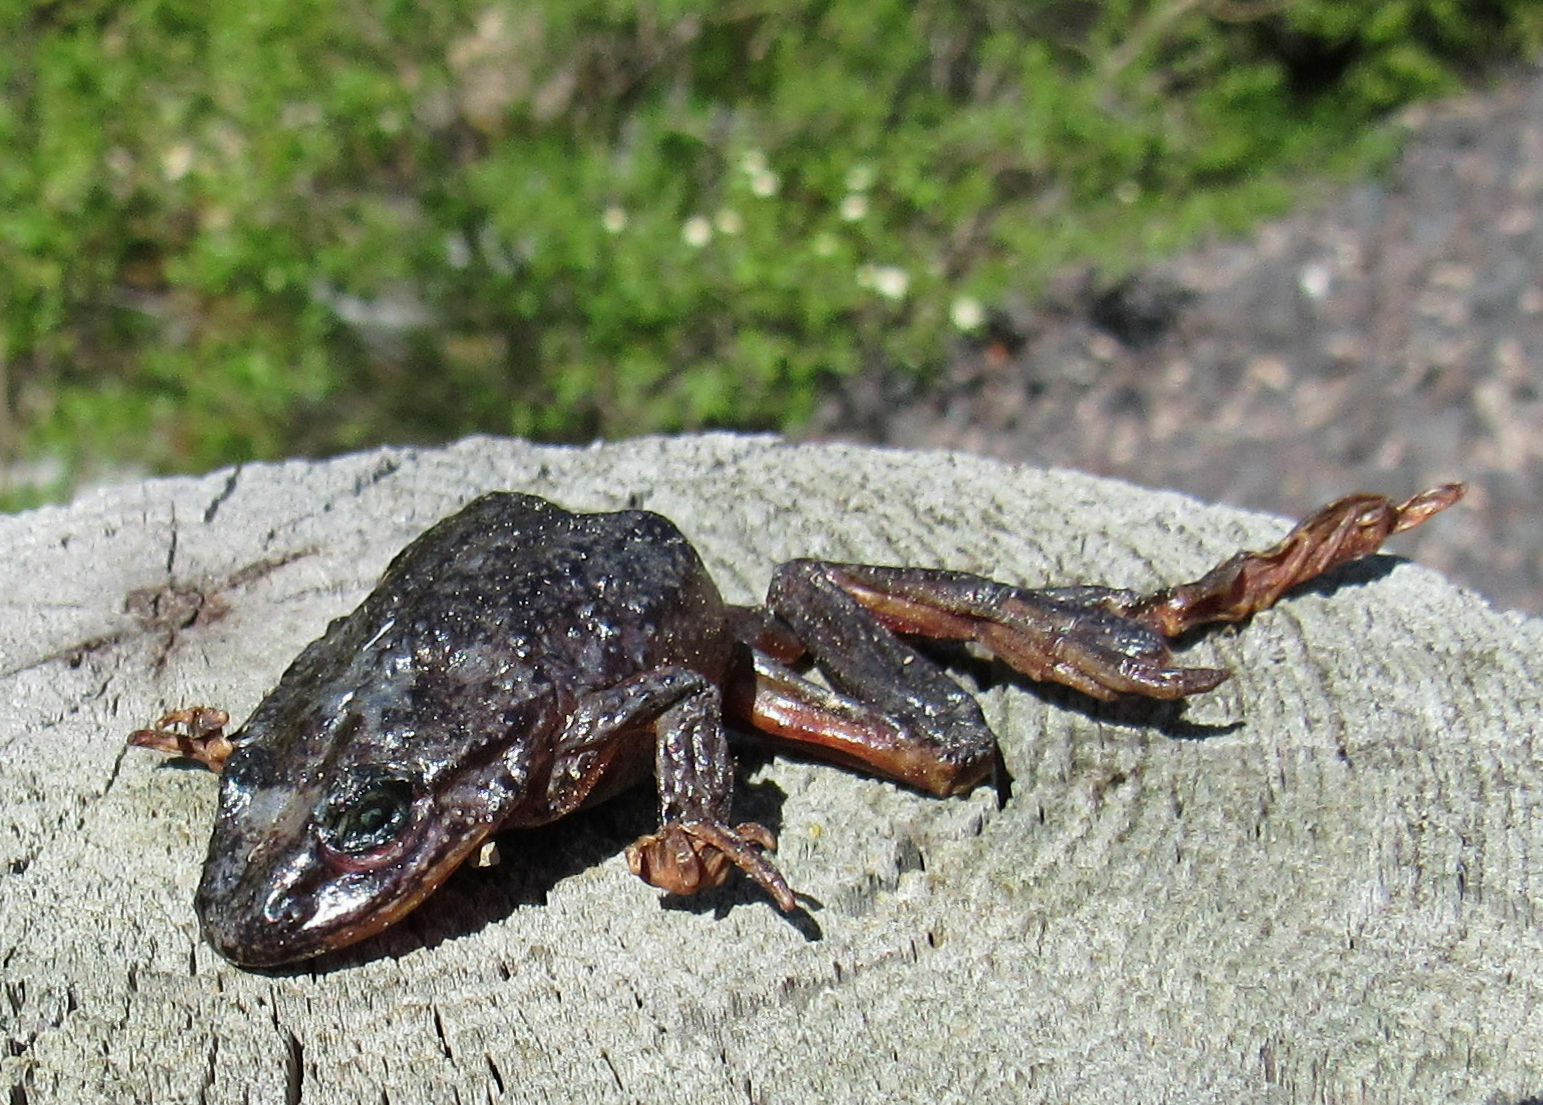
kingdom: Animalia
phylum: Chordata
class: Amphibia
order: Anura
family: Ranidae
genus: Rana
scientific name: Rana luteiventris
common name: Columbia spotted frog
